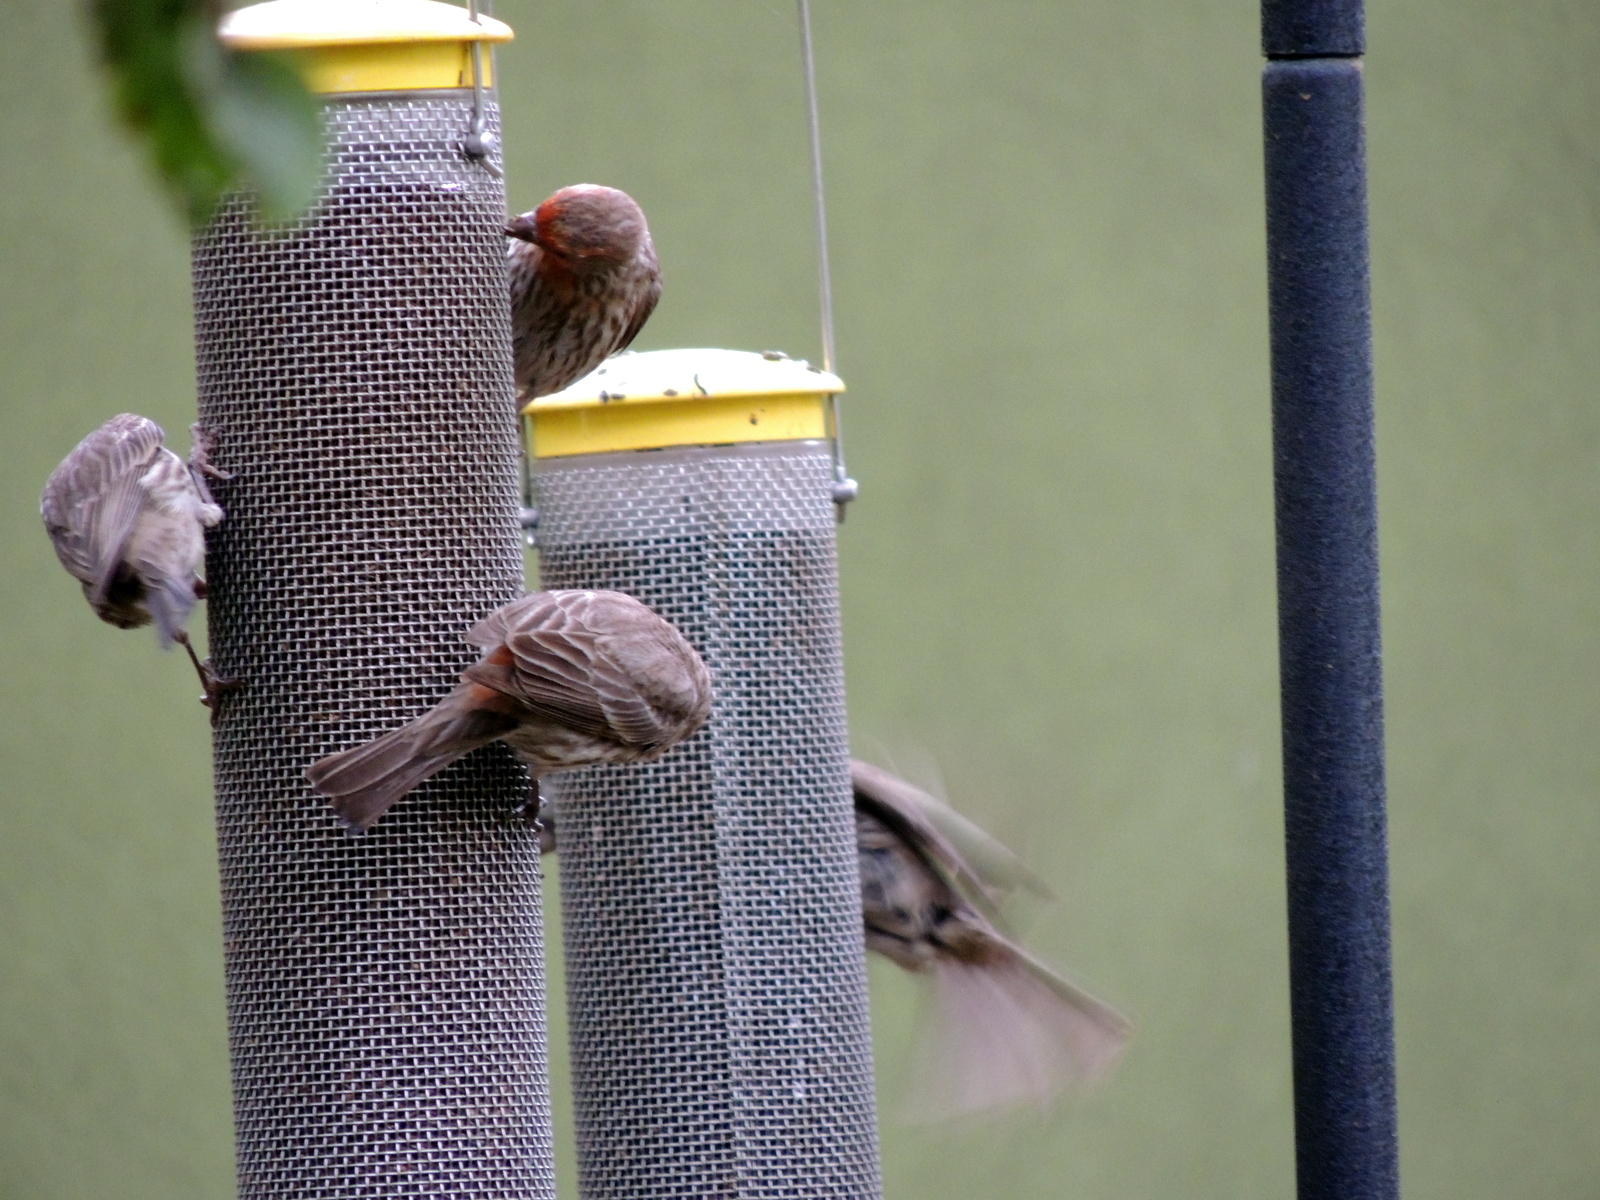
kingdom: Animalia
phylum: Chordata
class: Aves
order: Passeriformes
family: Fringillidae
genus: Haemorhous
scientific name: Haemorhous mexicanus
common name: House finch
